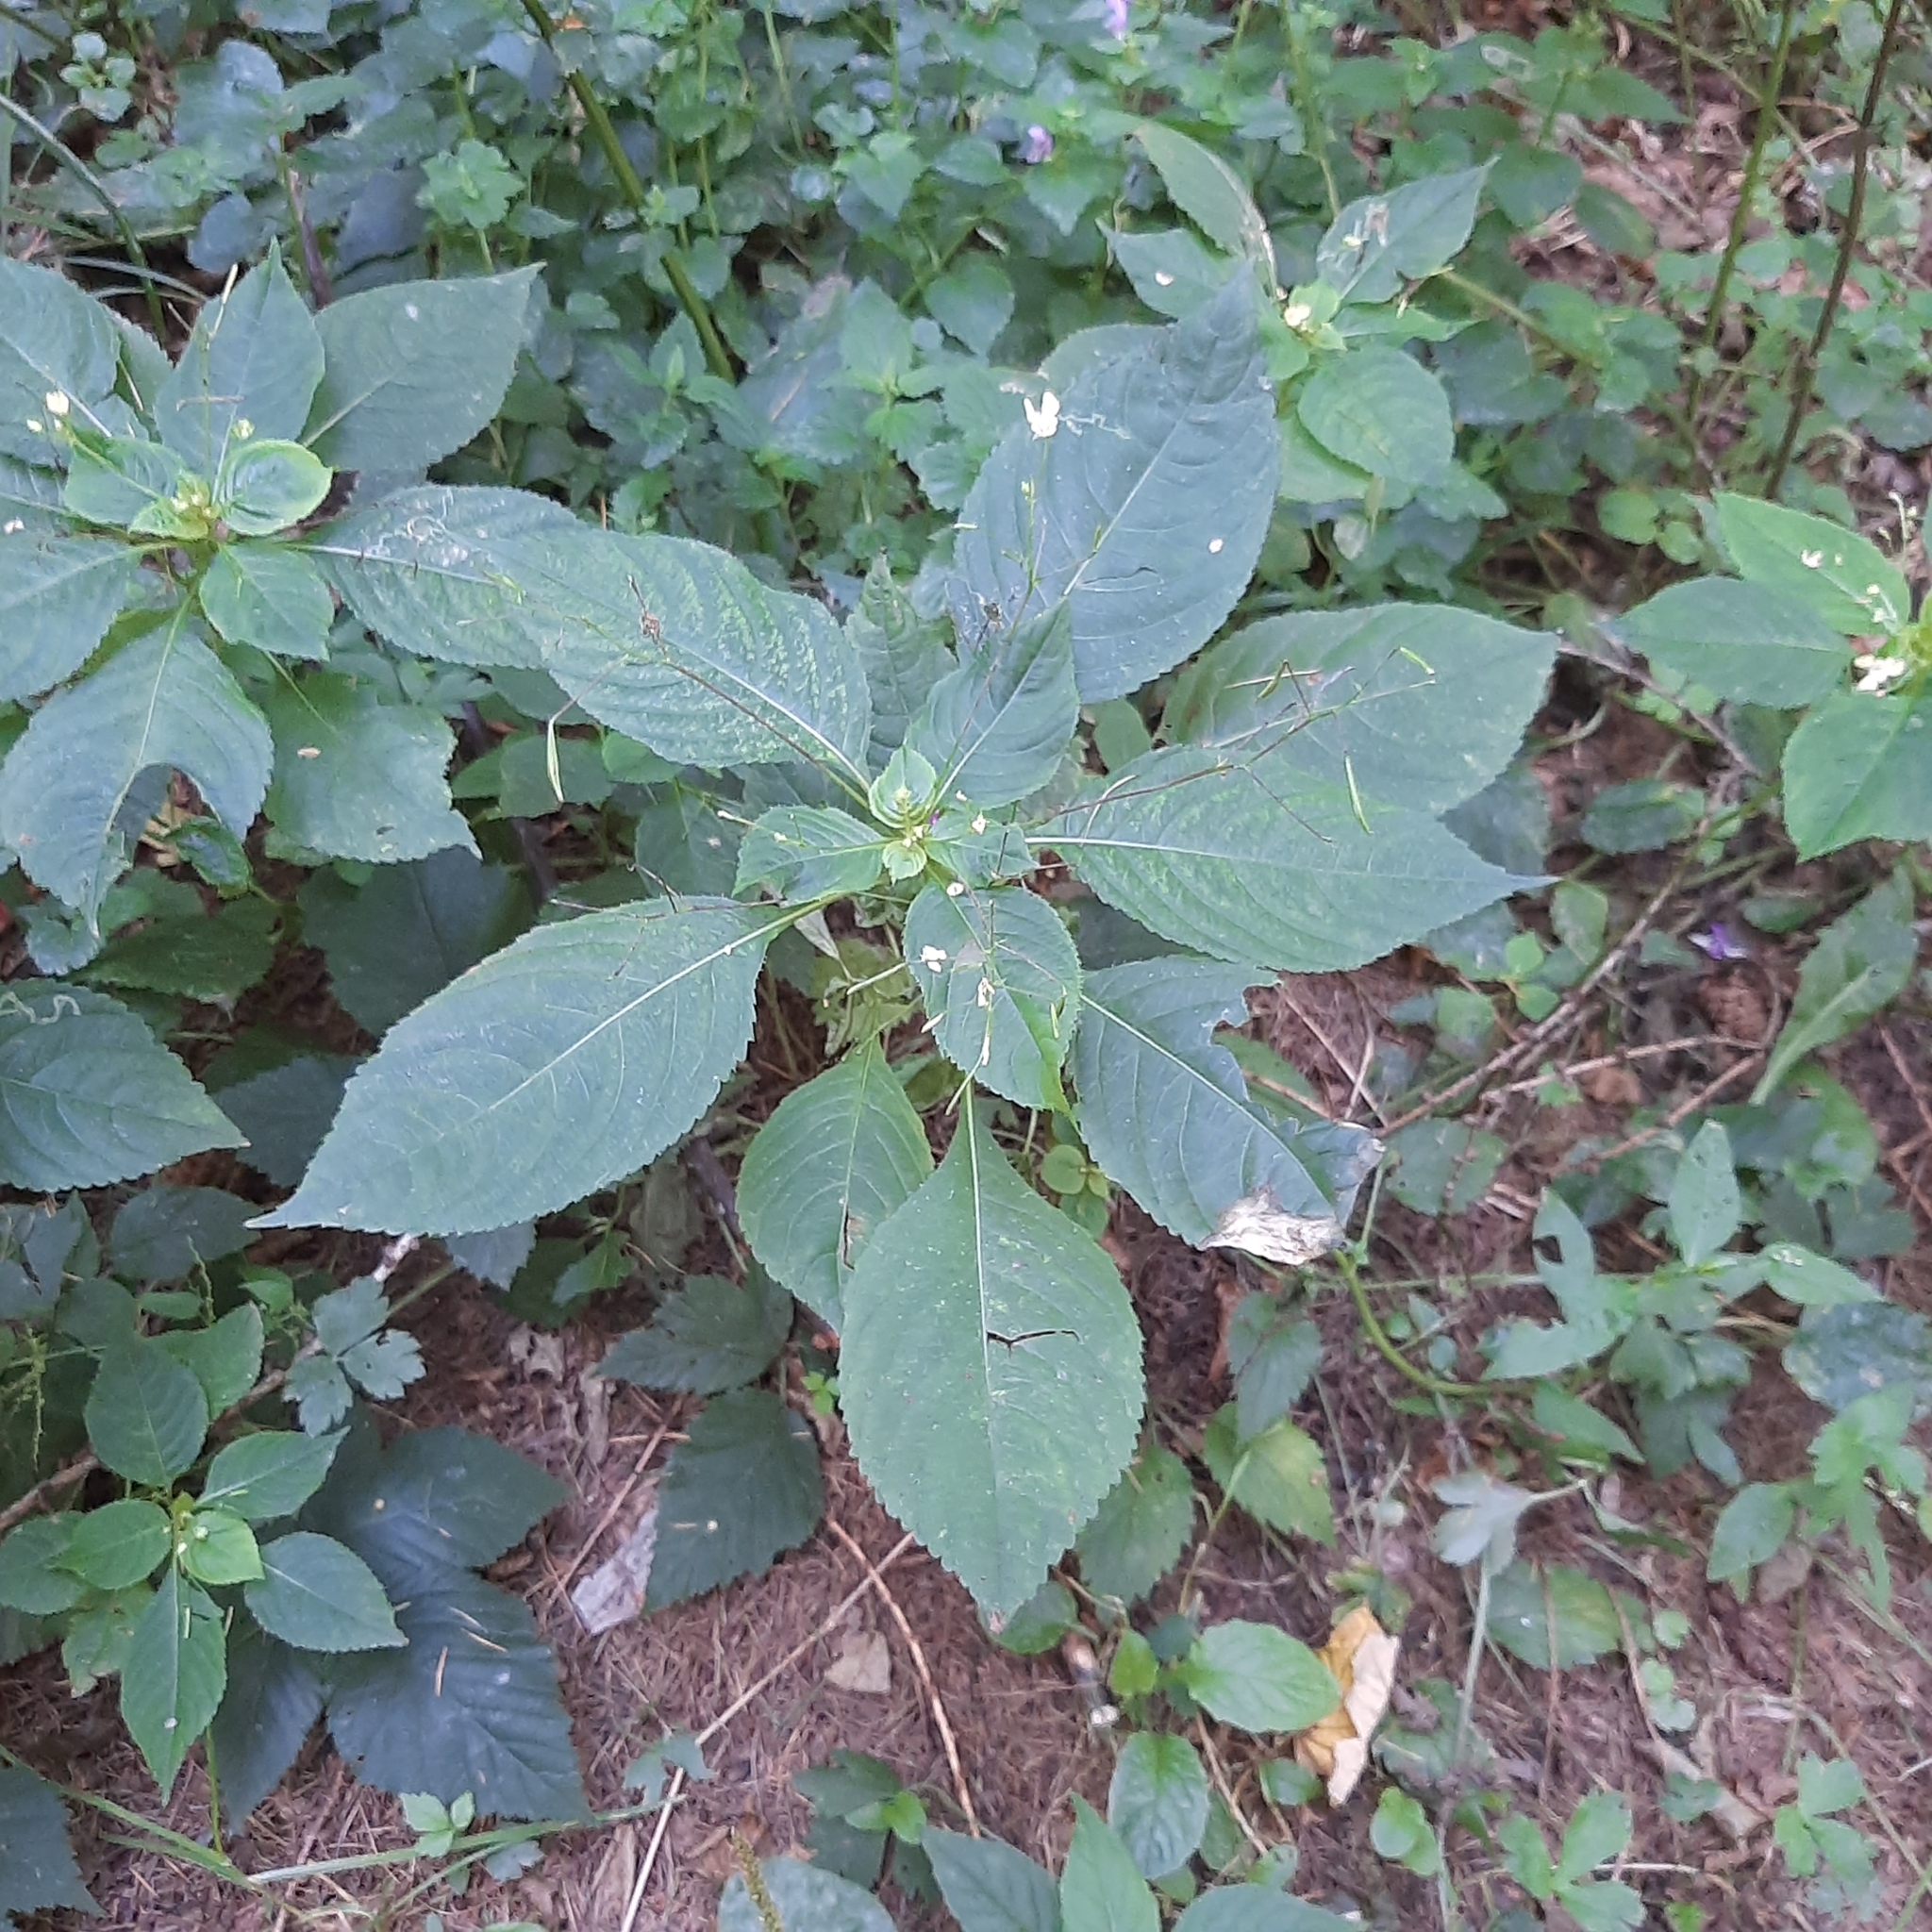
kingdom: Plantae
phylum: Tracheophyta
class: Magnoliopsida
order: Ericales
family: Balsaminaceae
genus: Impatiens
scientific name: Impatiens parviflora
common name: Small balsam
